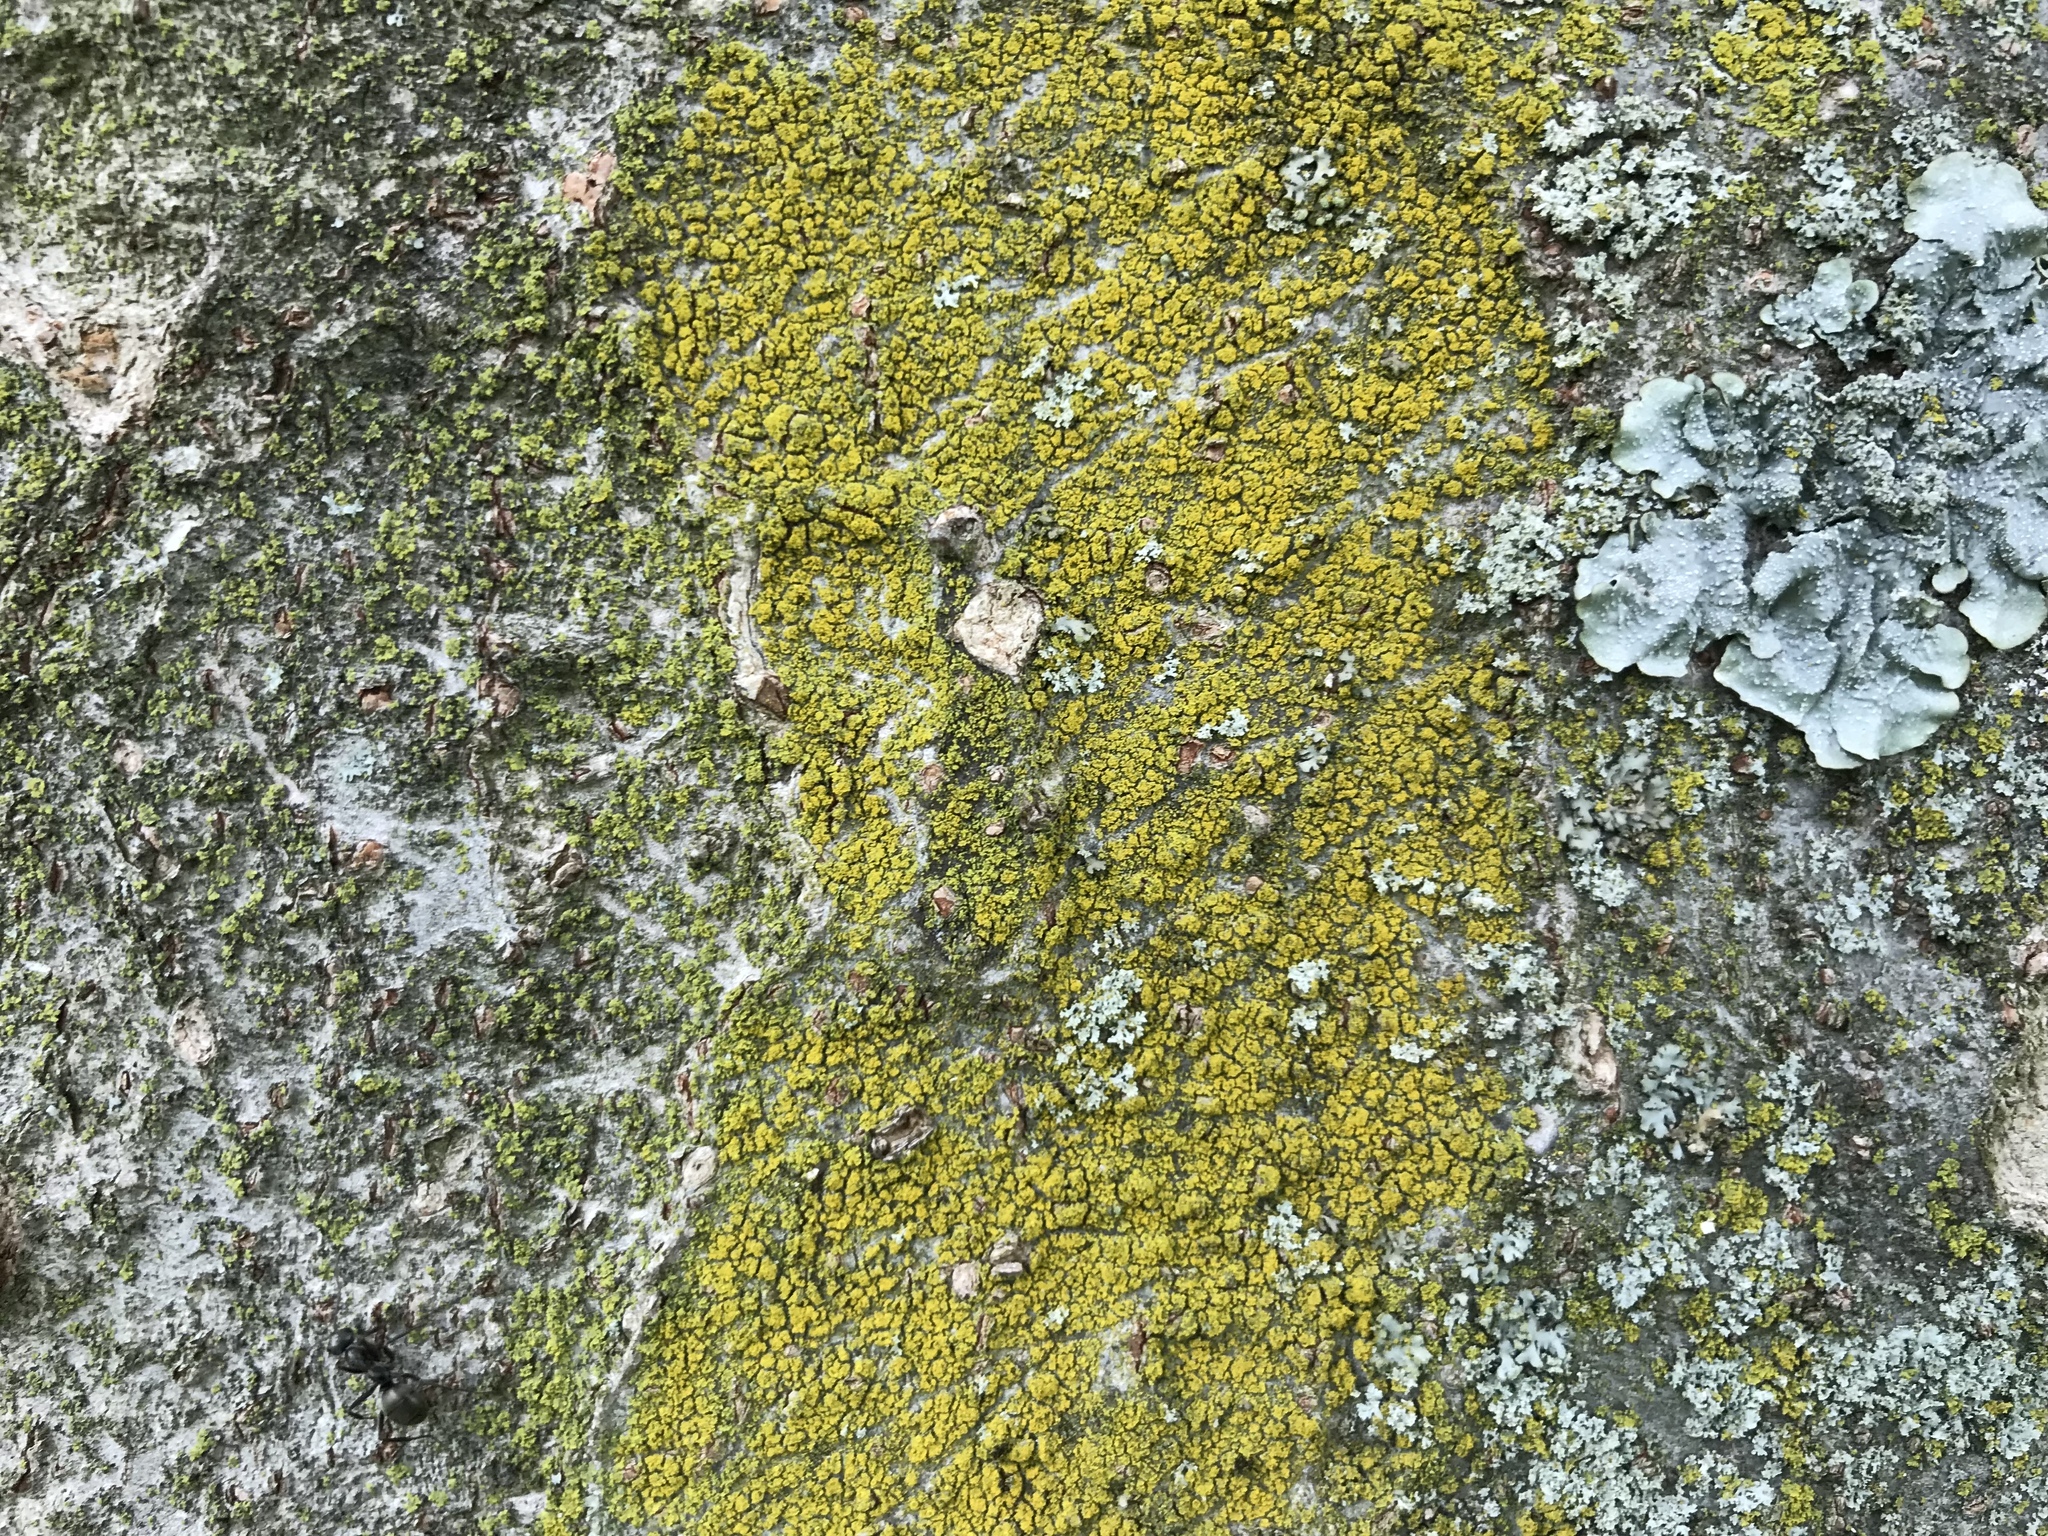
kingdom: Fungi
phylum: Ascomycota
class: Candelariomycetes
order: Candelariales
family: Candelariaceae
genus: Candelaria
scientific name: Candelaria concolor
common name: Candleflame lichen
